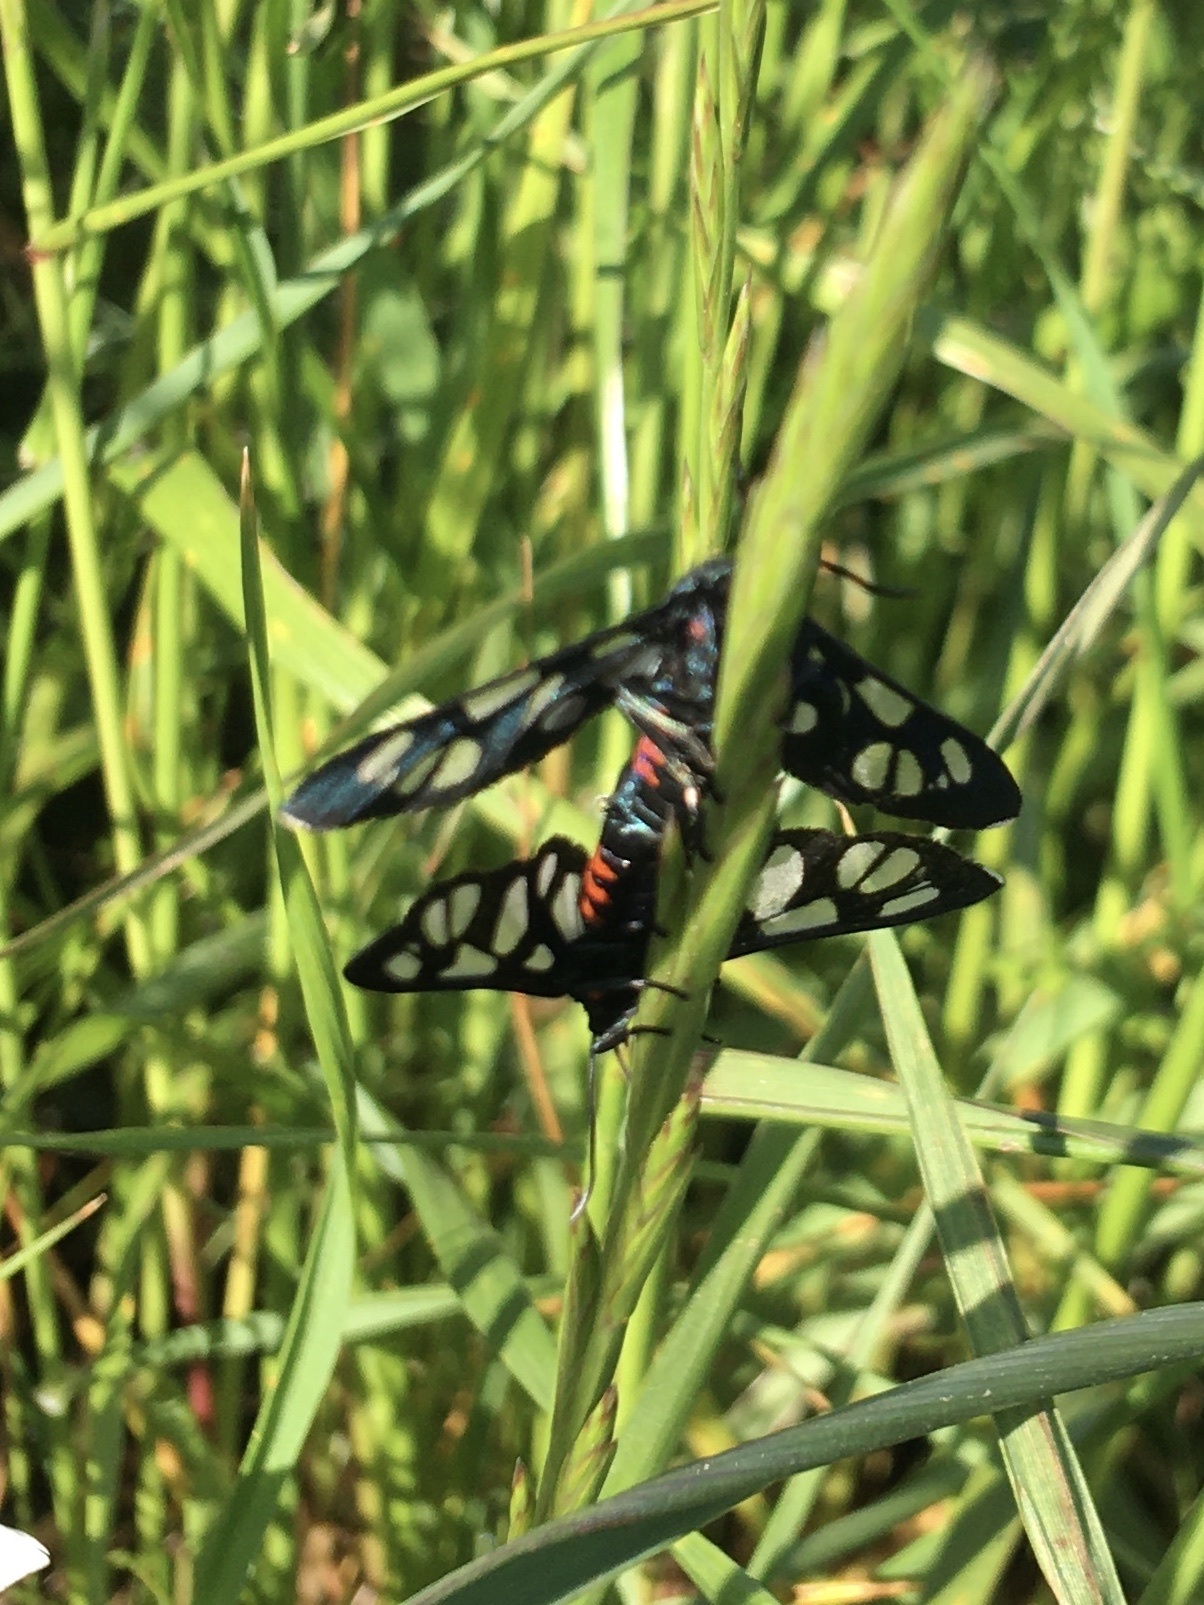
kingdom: Animalia
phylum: Arthropoda
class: Insecta
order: Lepidoptera
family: Erebidae
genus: Amata
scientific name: Amata cerbera
